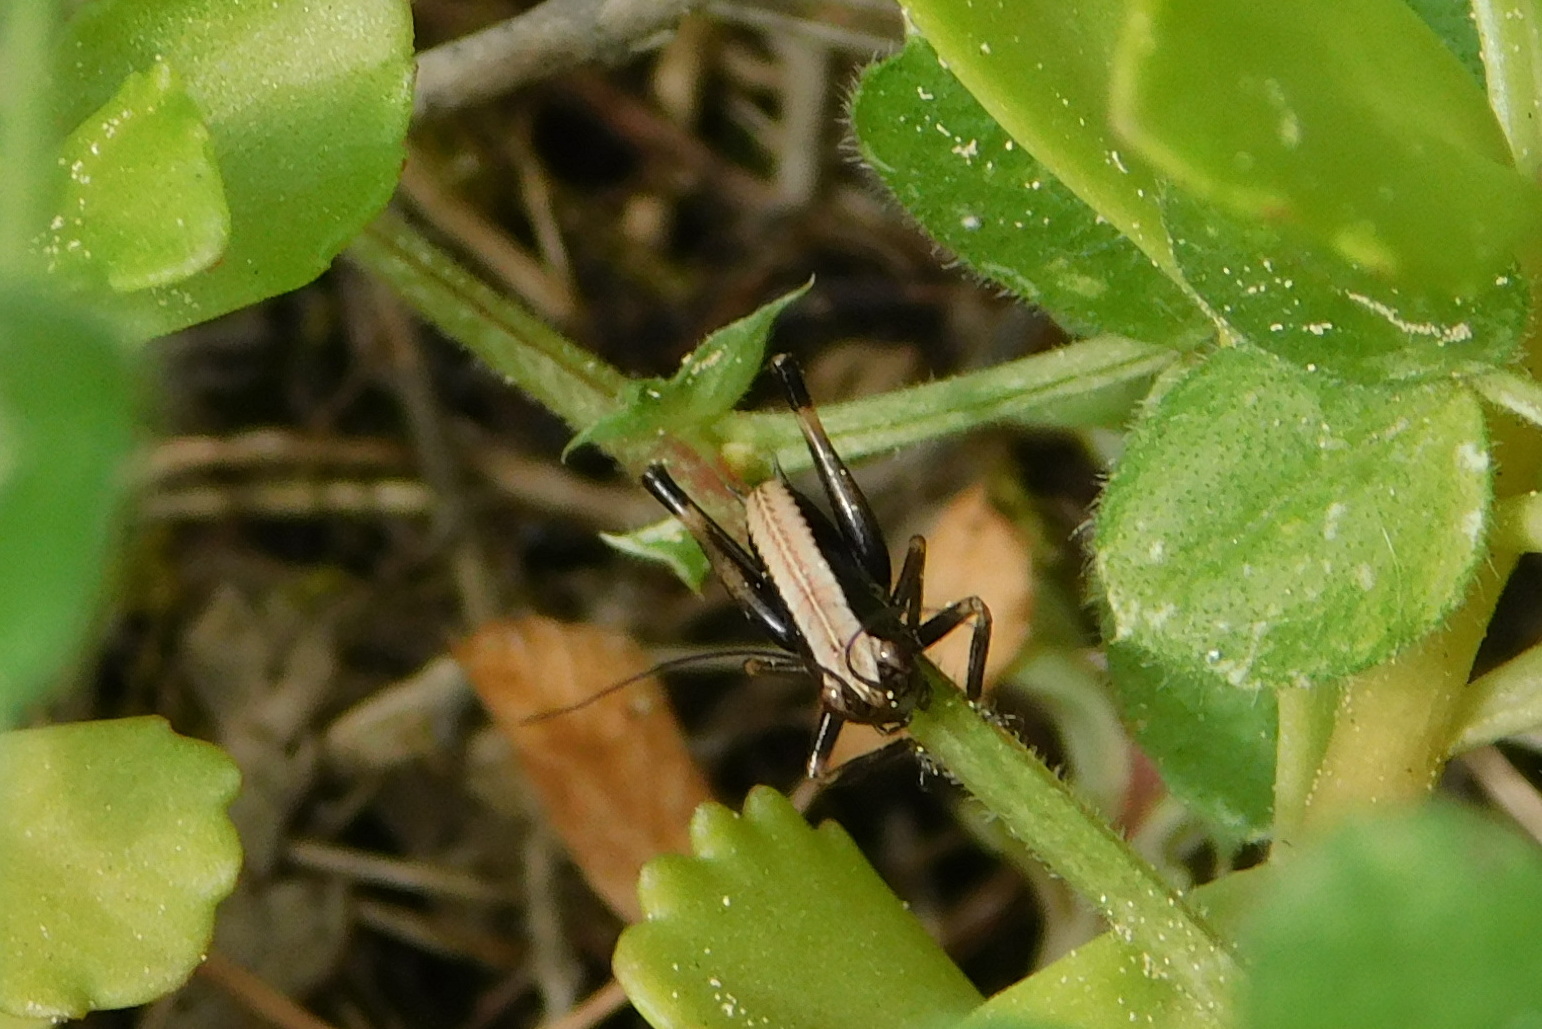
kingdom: Animalia
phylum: Arthropoda
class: Insecta
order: Orthoptera
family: Tettigoniidae
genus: Pholidoptera
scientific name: Pholidoptera griseoaptera
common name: Dark bush-cricket
